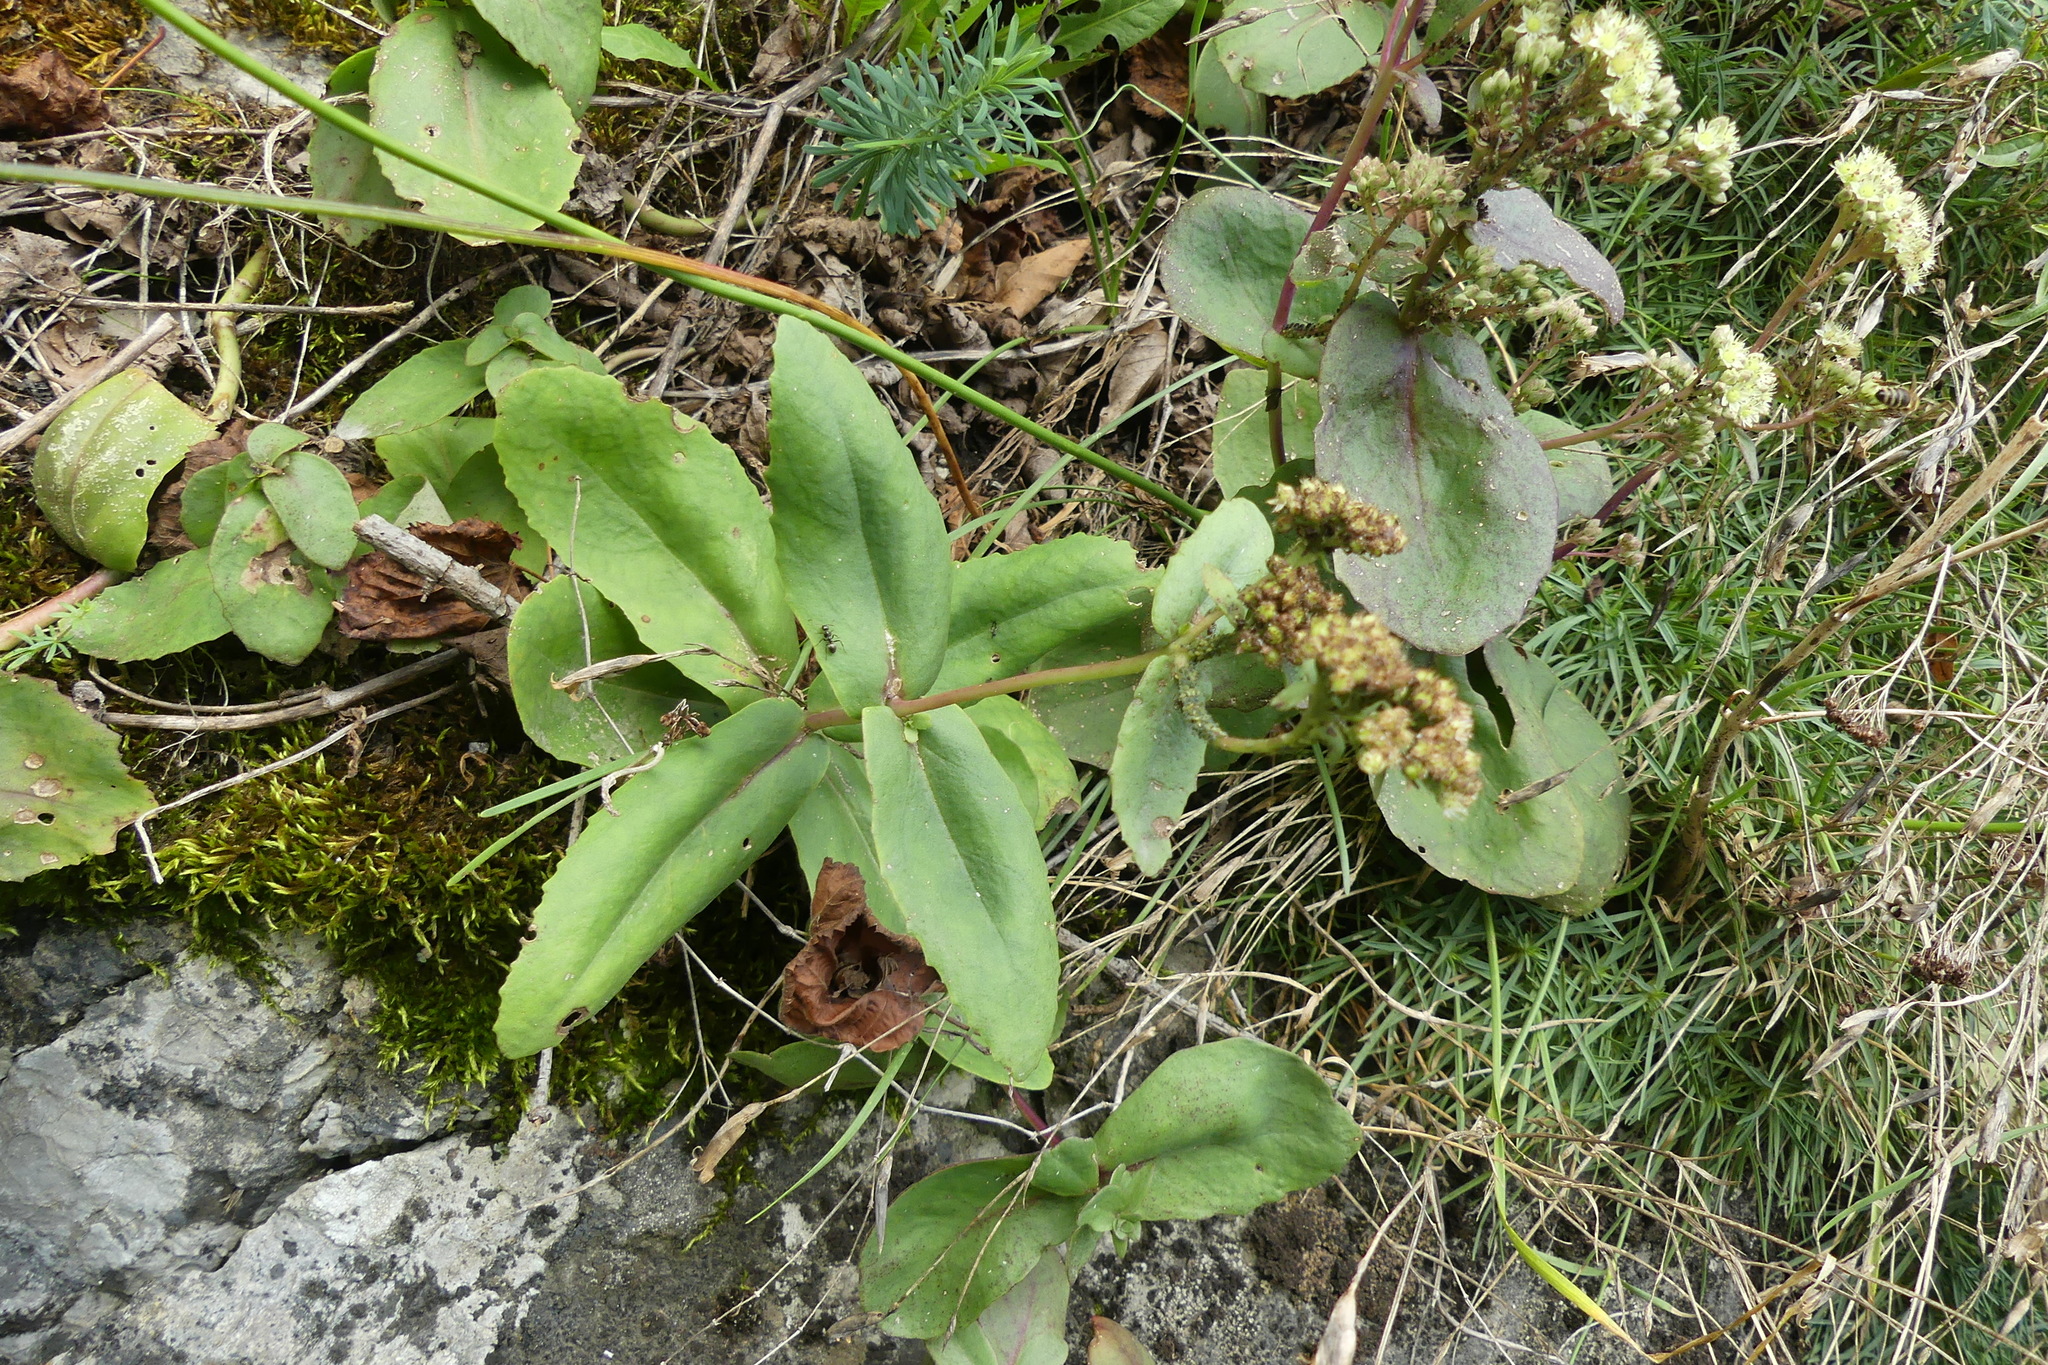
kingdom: Plantae
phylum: Tracheophyta
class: Magnoliopsida
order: Saxifragales
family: Crassulaceae
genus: Hylotelephium
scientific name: Hylotelephium maximum
